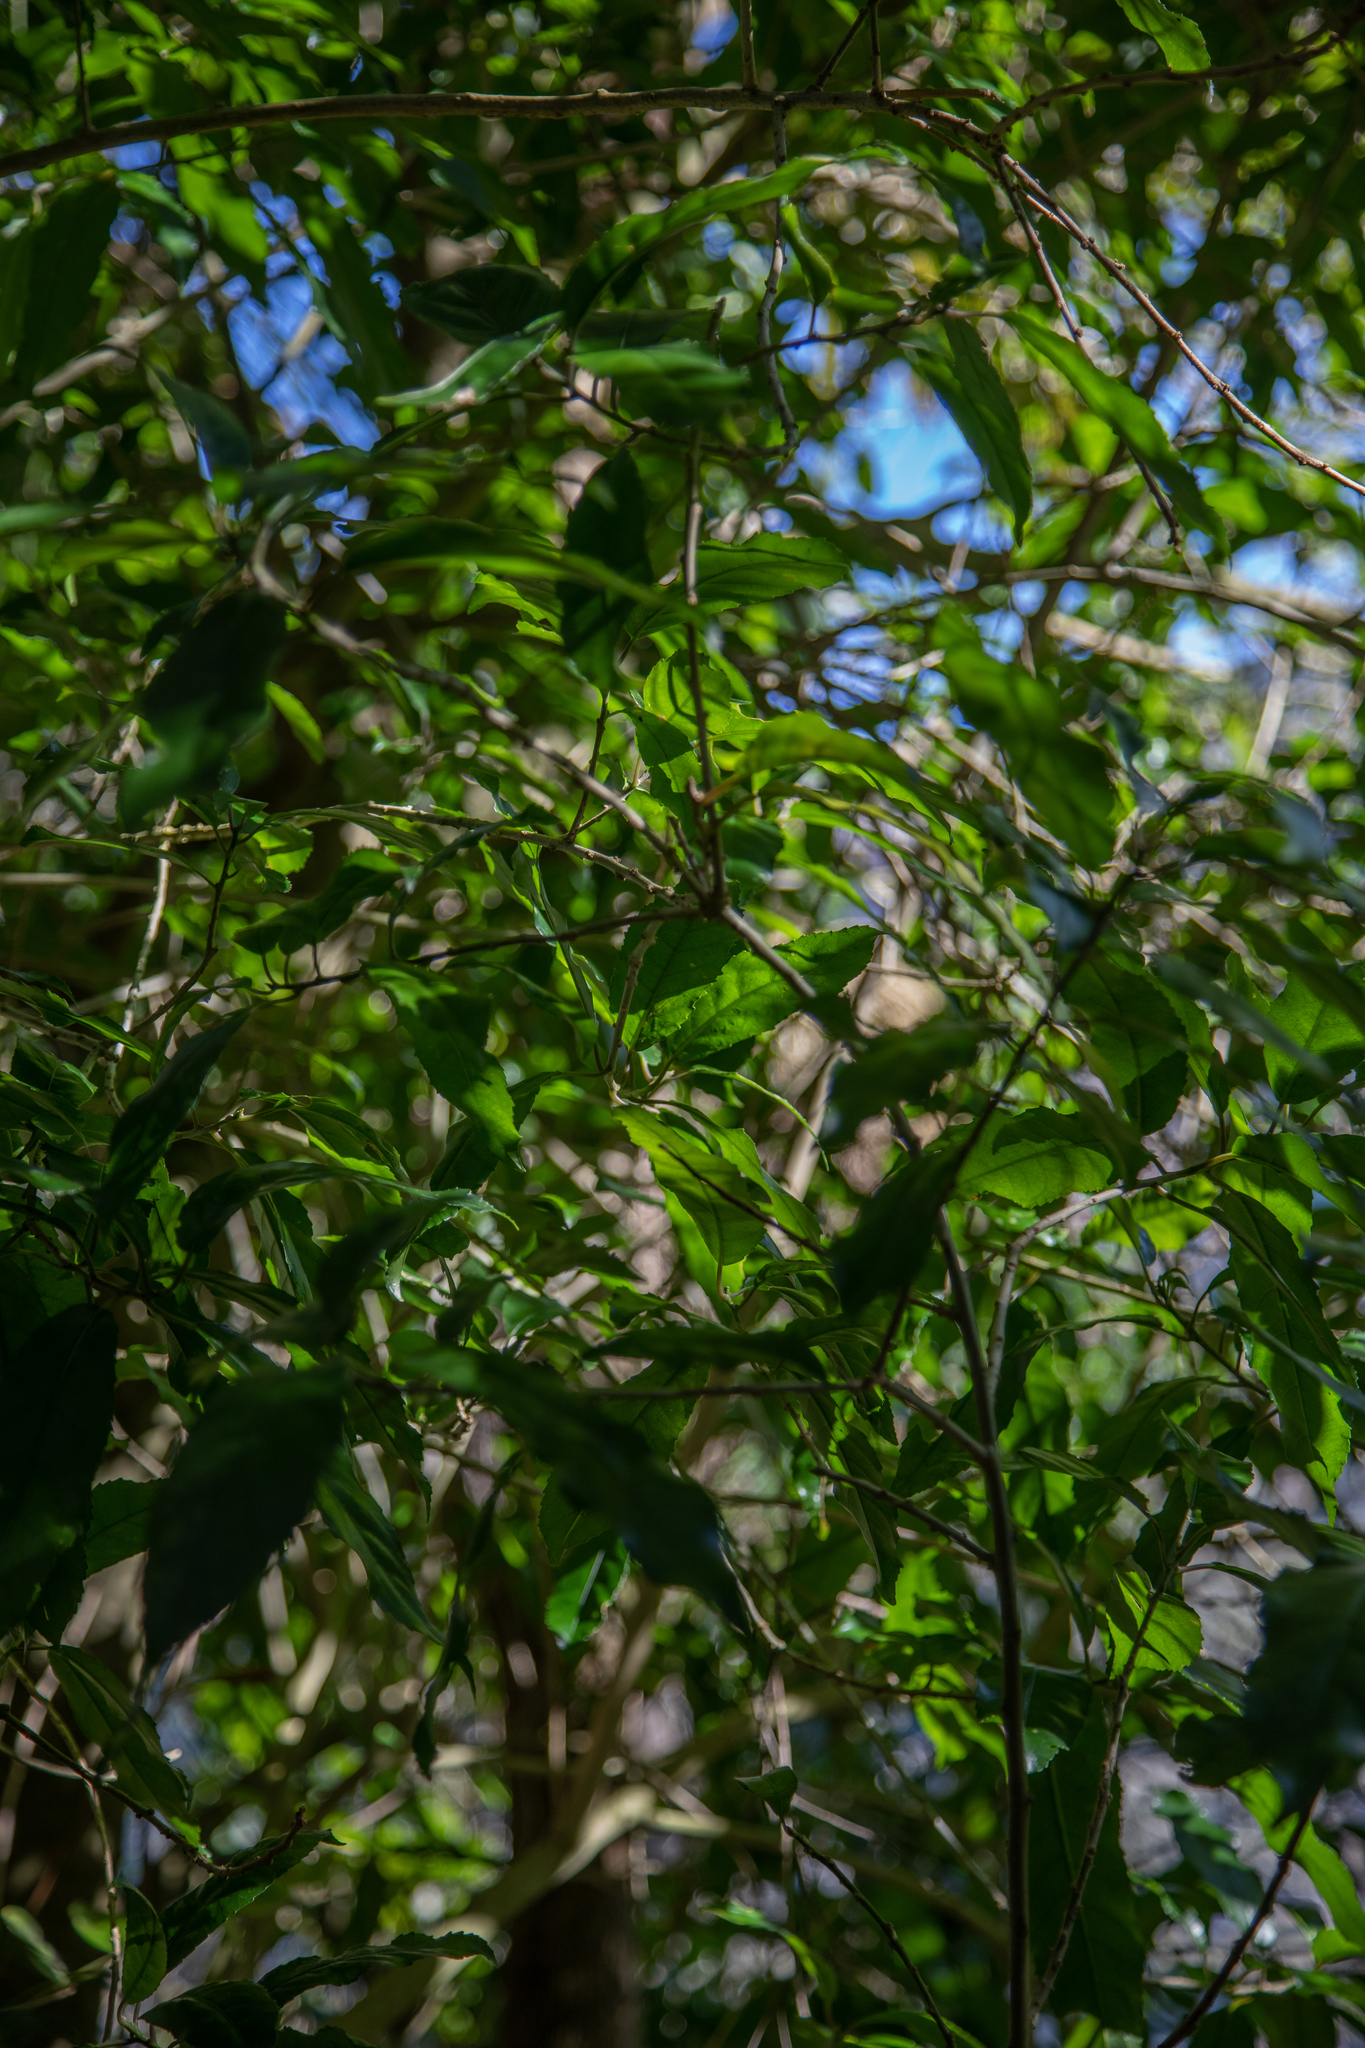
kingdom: Plantae
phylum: Tracheophyta
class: Magnoliopsida
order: Malpighiales
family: Violaceae
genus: Melicytus
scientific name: Melicytus ramiflorus
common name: Mahoe
